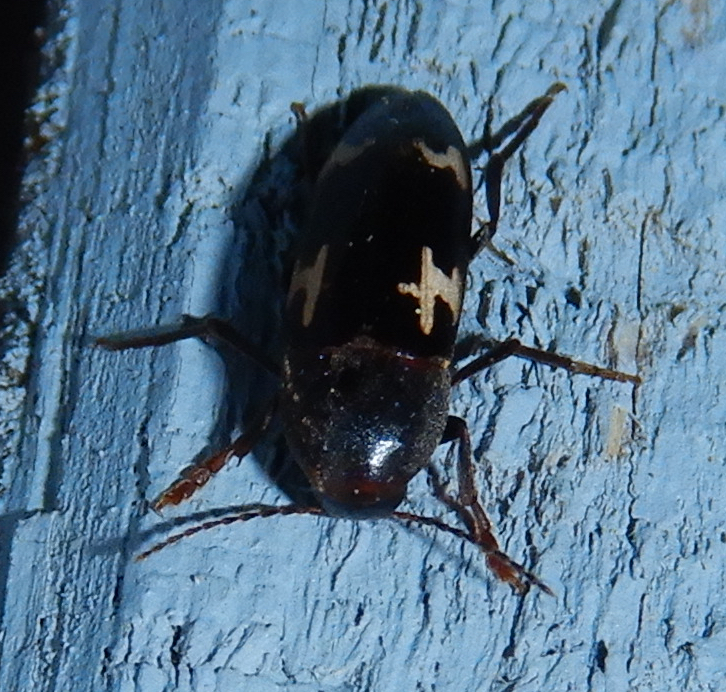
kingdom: Animalia
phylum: Arthropoda
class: Insecta
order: Coleoptera
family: Melandryidae
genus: Dircaea
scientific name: Dircaea liturata
